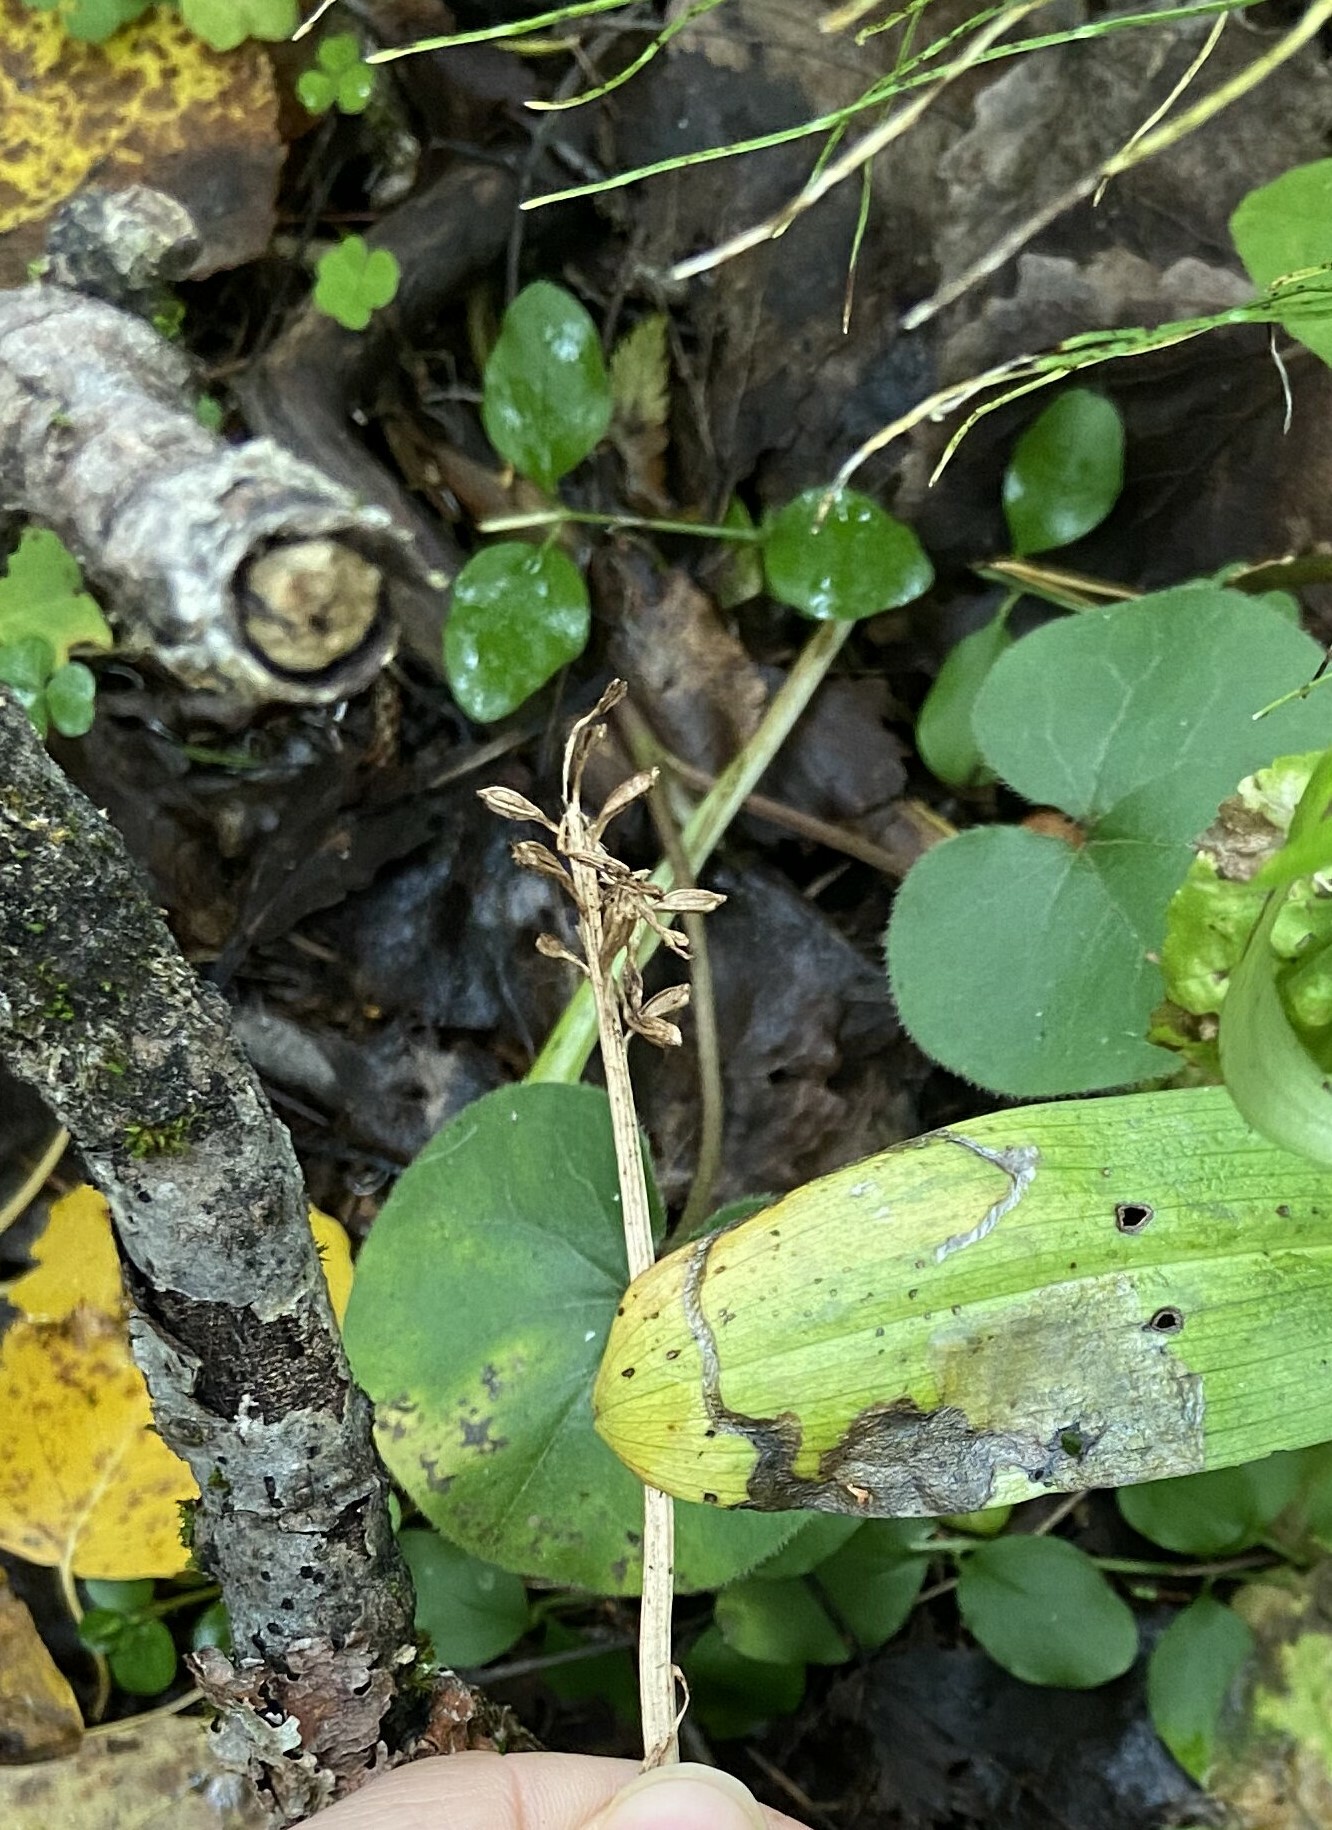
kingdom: Plantae
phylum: Tracheophyta
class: Liliopsida
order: Asparagales
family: Orchidaceae
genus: Neottia
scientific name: Neottia nidus-avis
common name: Bird's-nest orchid
